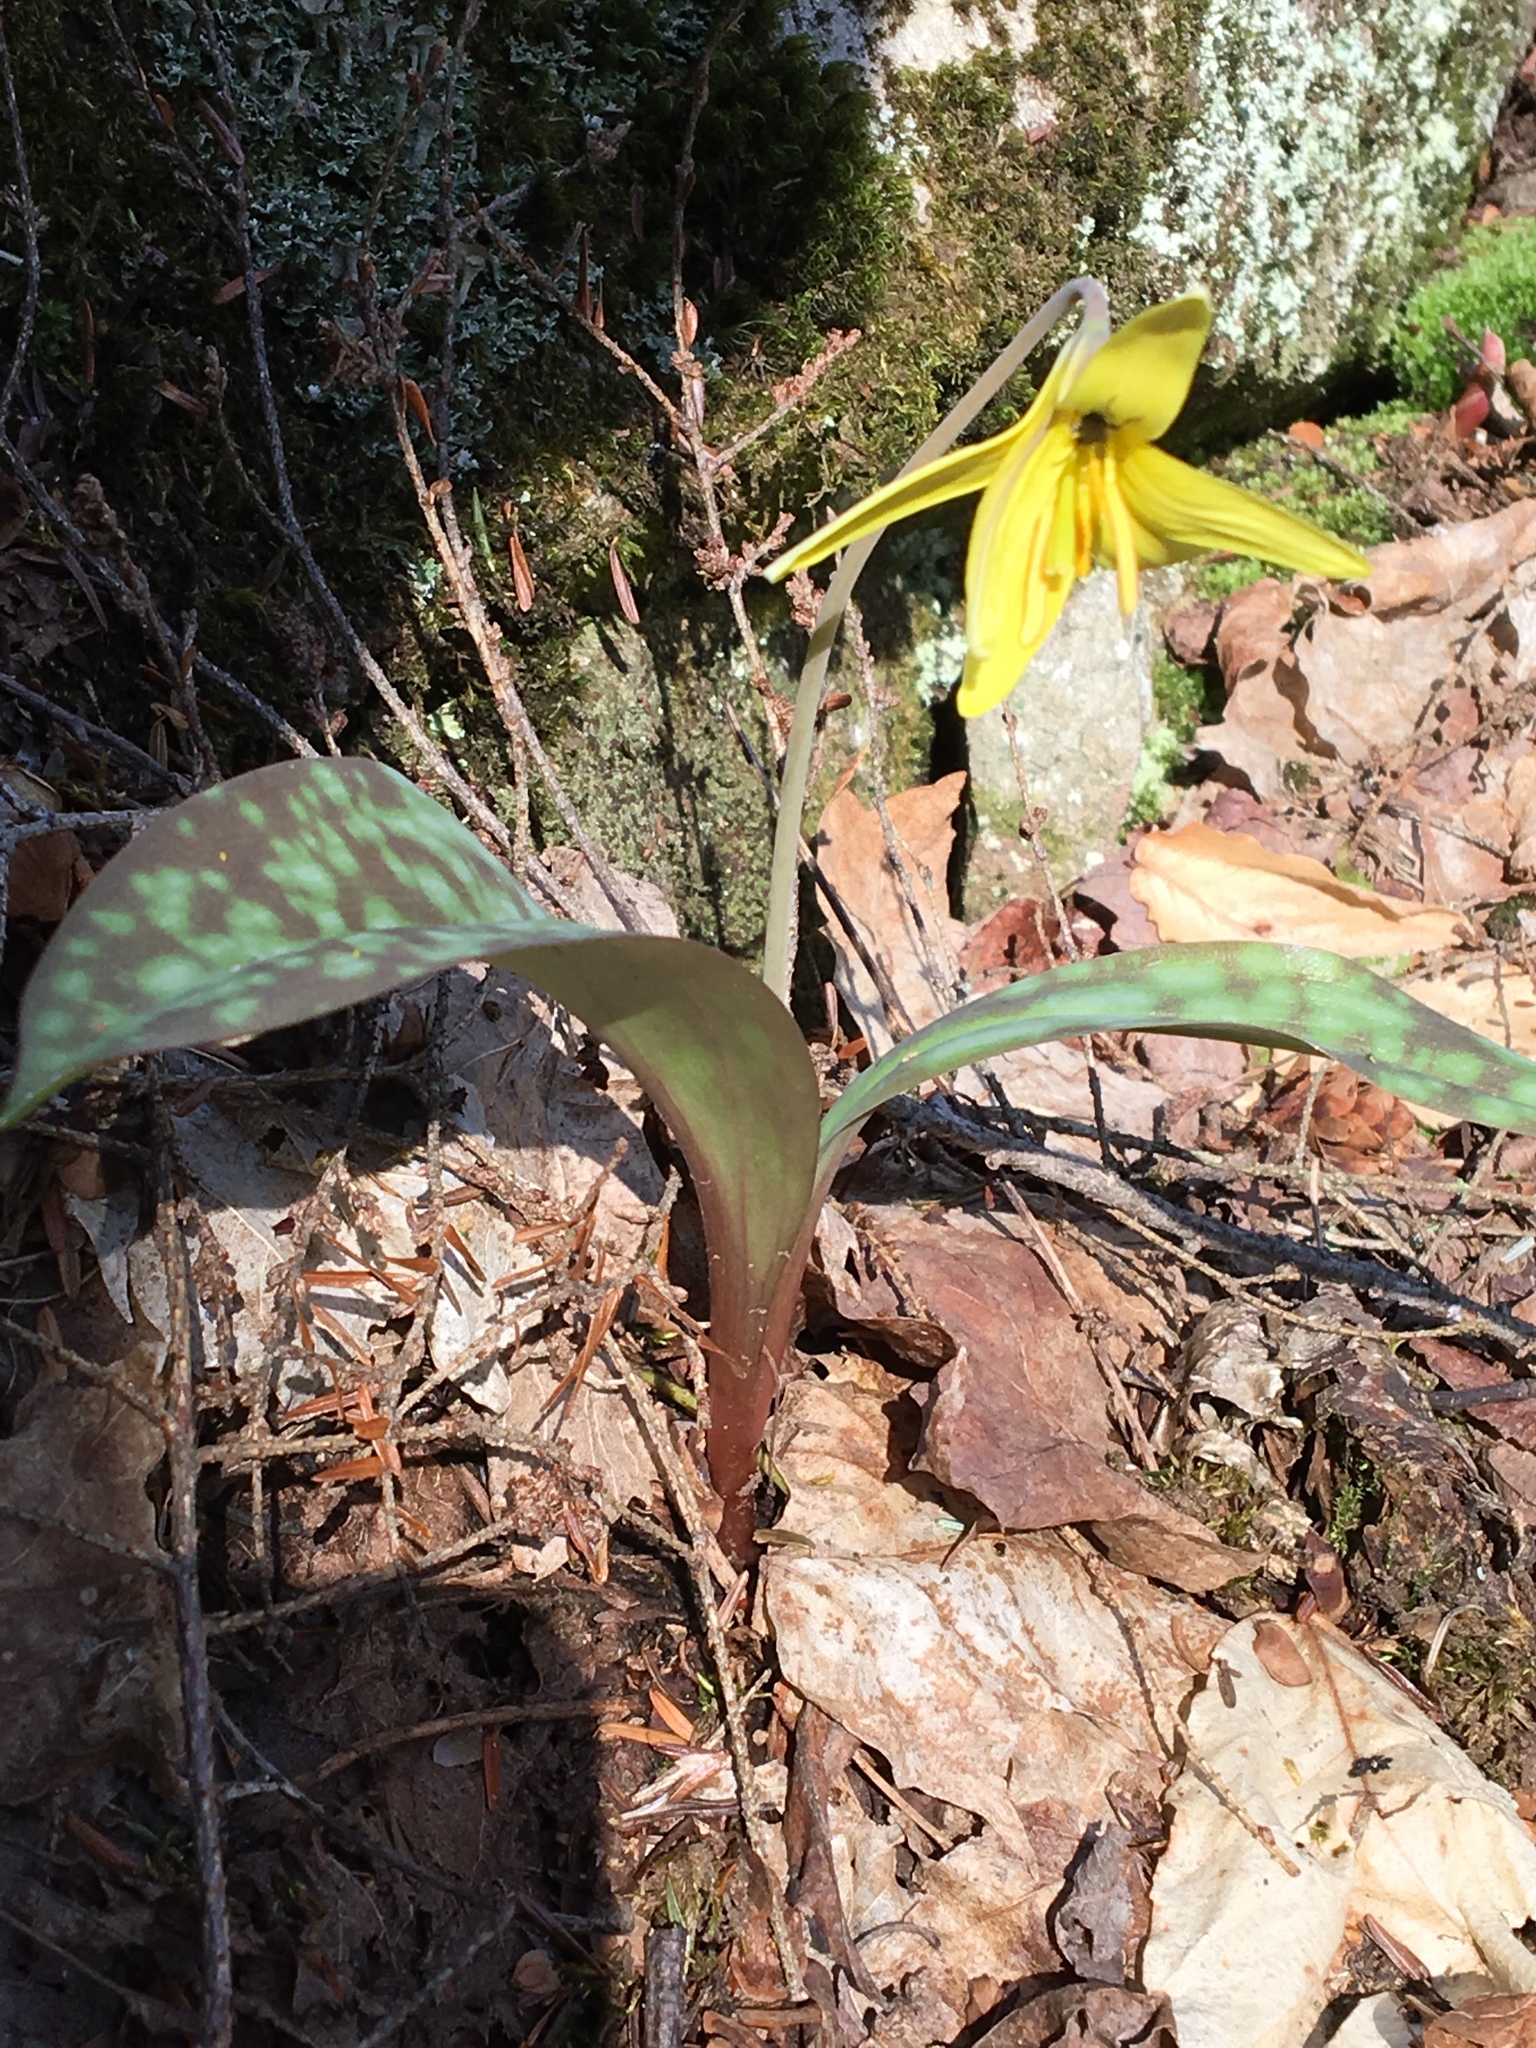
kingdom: Plantae
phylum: Tracheophyta
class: Liliopsida
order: Liliales
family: Liliaceae
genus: Erythronium
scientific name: Erythronium americanum
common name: Yellow adder's-tongue
